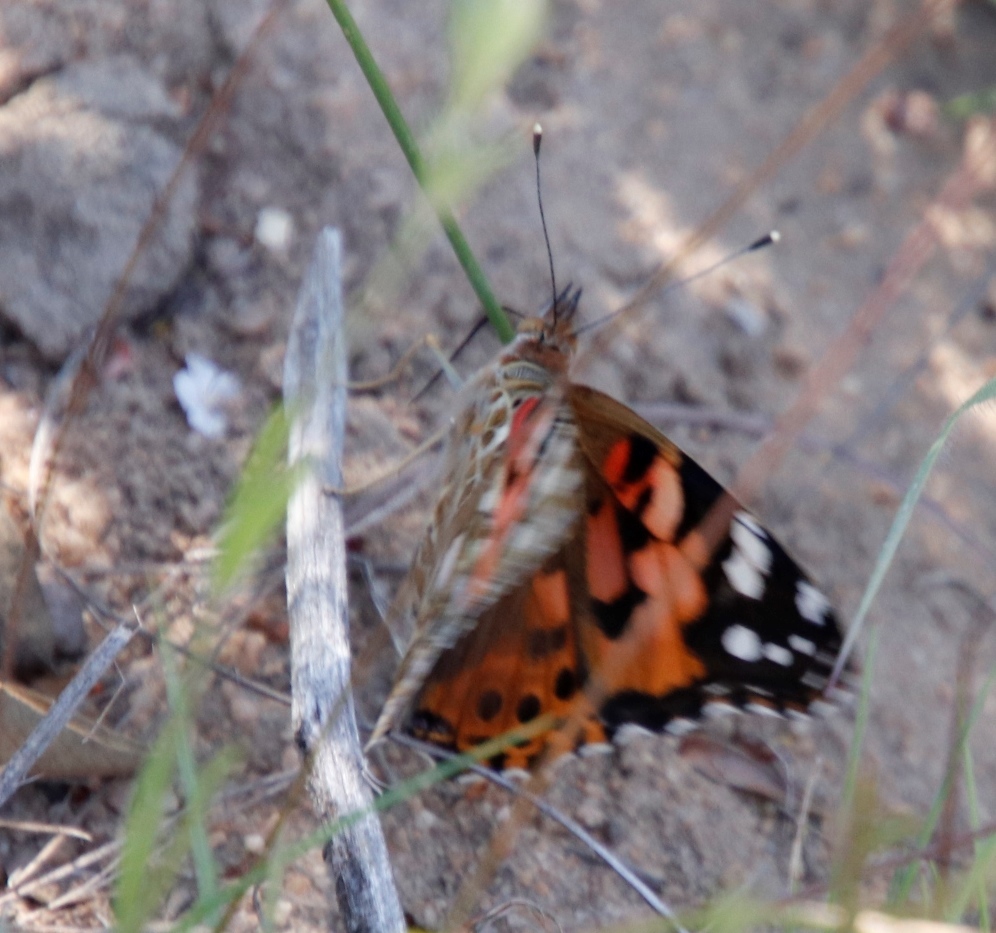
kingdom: Animalia
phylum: Arthropoda
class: Insecta
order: Lepidoptera
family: Nymphalidae
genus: Vanessa
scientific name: Vanessa cardui
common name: Painted lady
